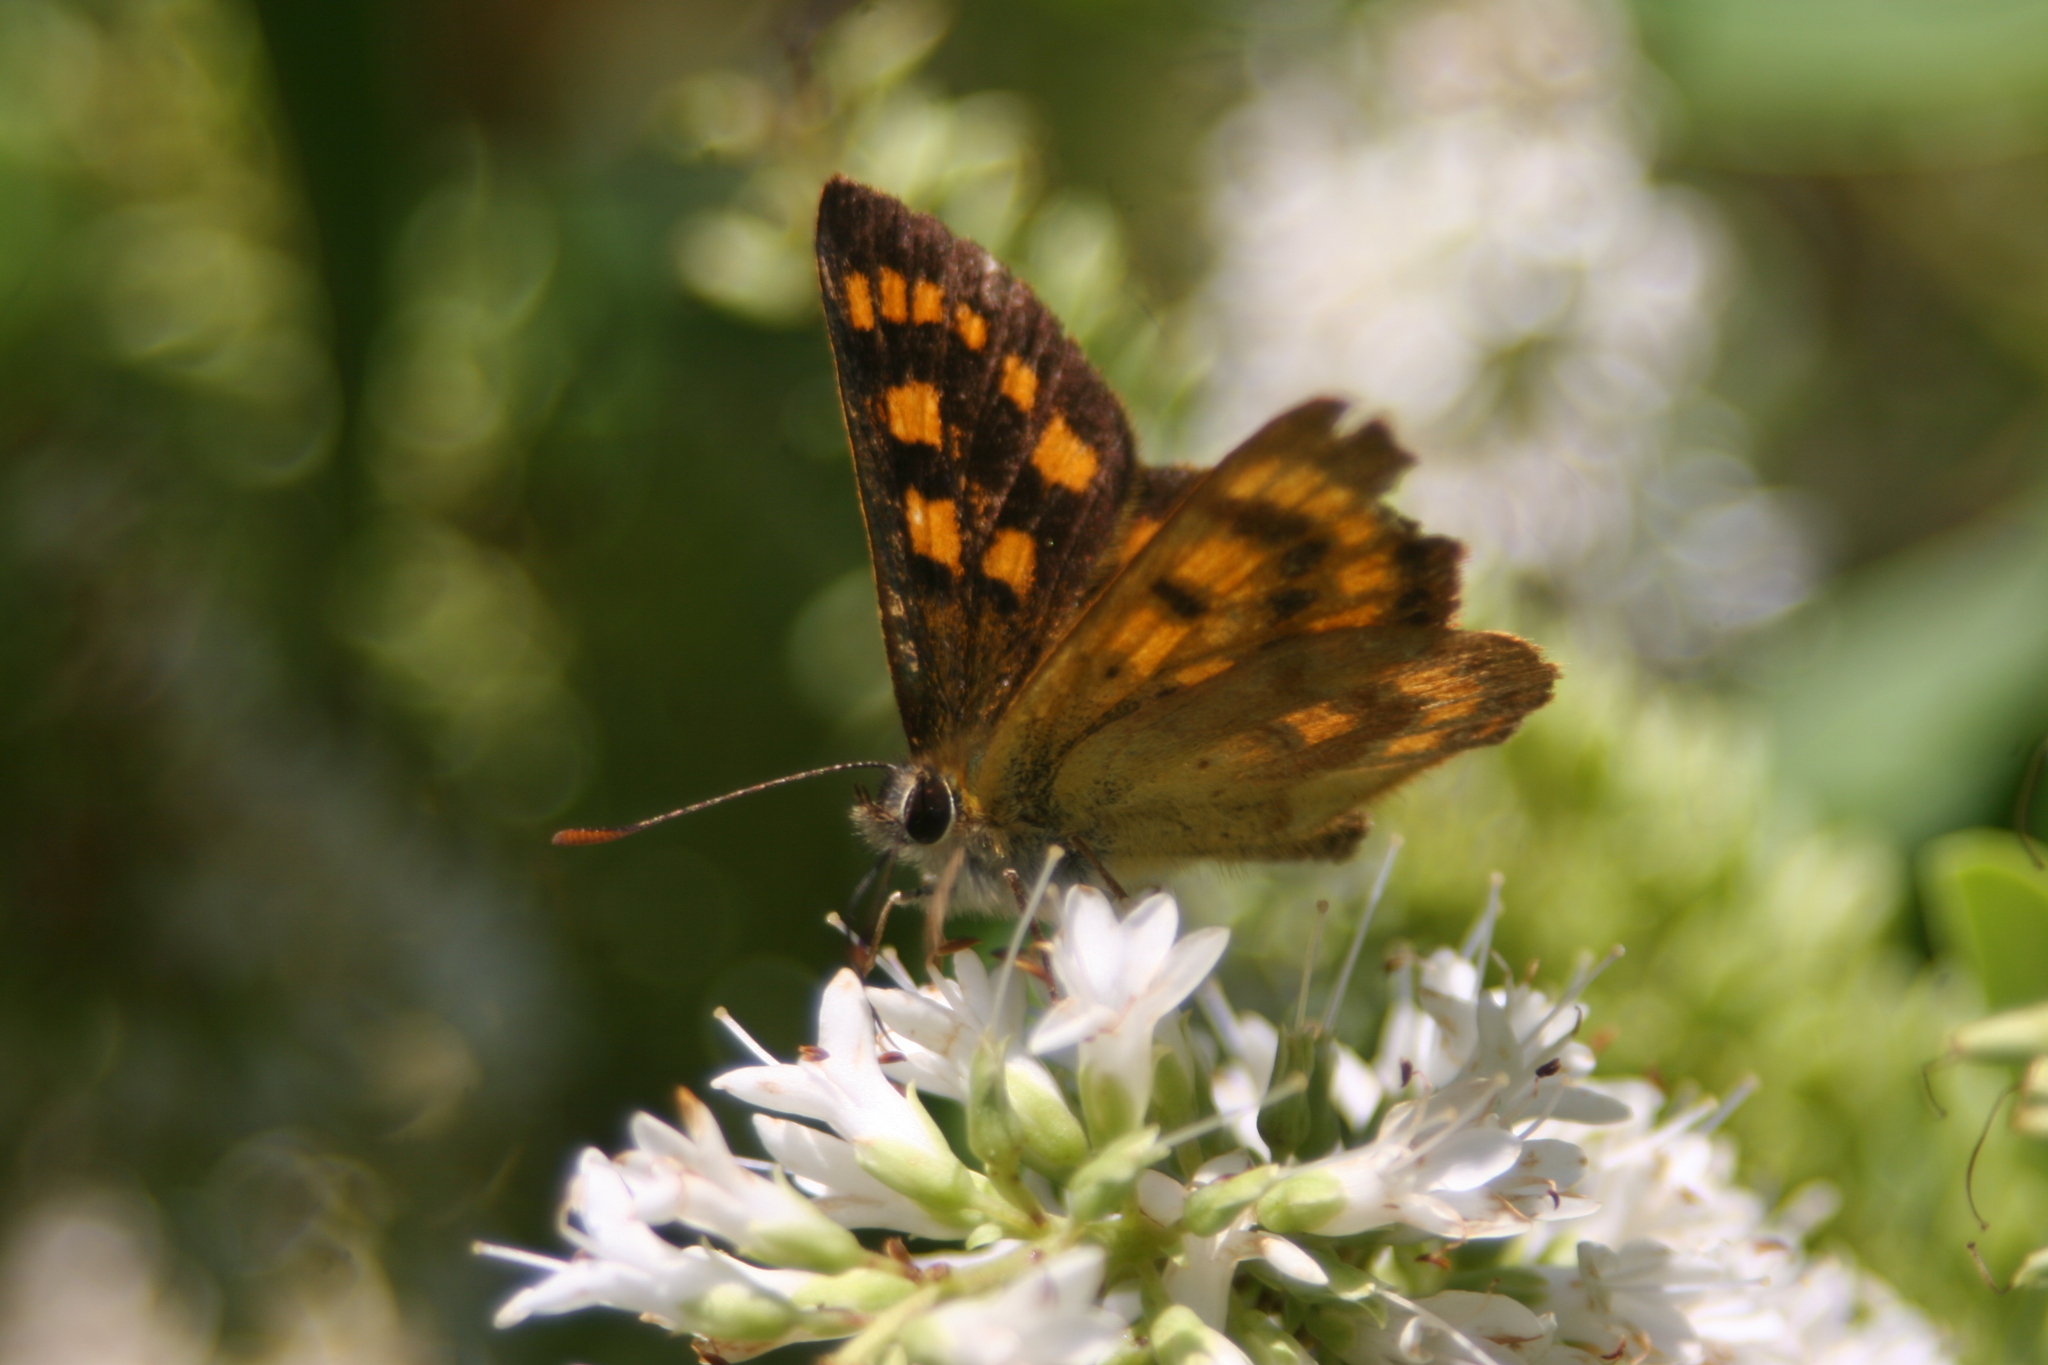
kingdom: Animalia
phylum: Arthropoda
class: Insecta
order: Lepidoptera
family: Lycaenidae
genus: Lycaena
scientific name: Lycaena
